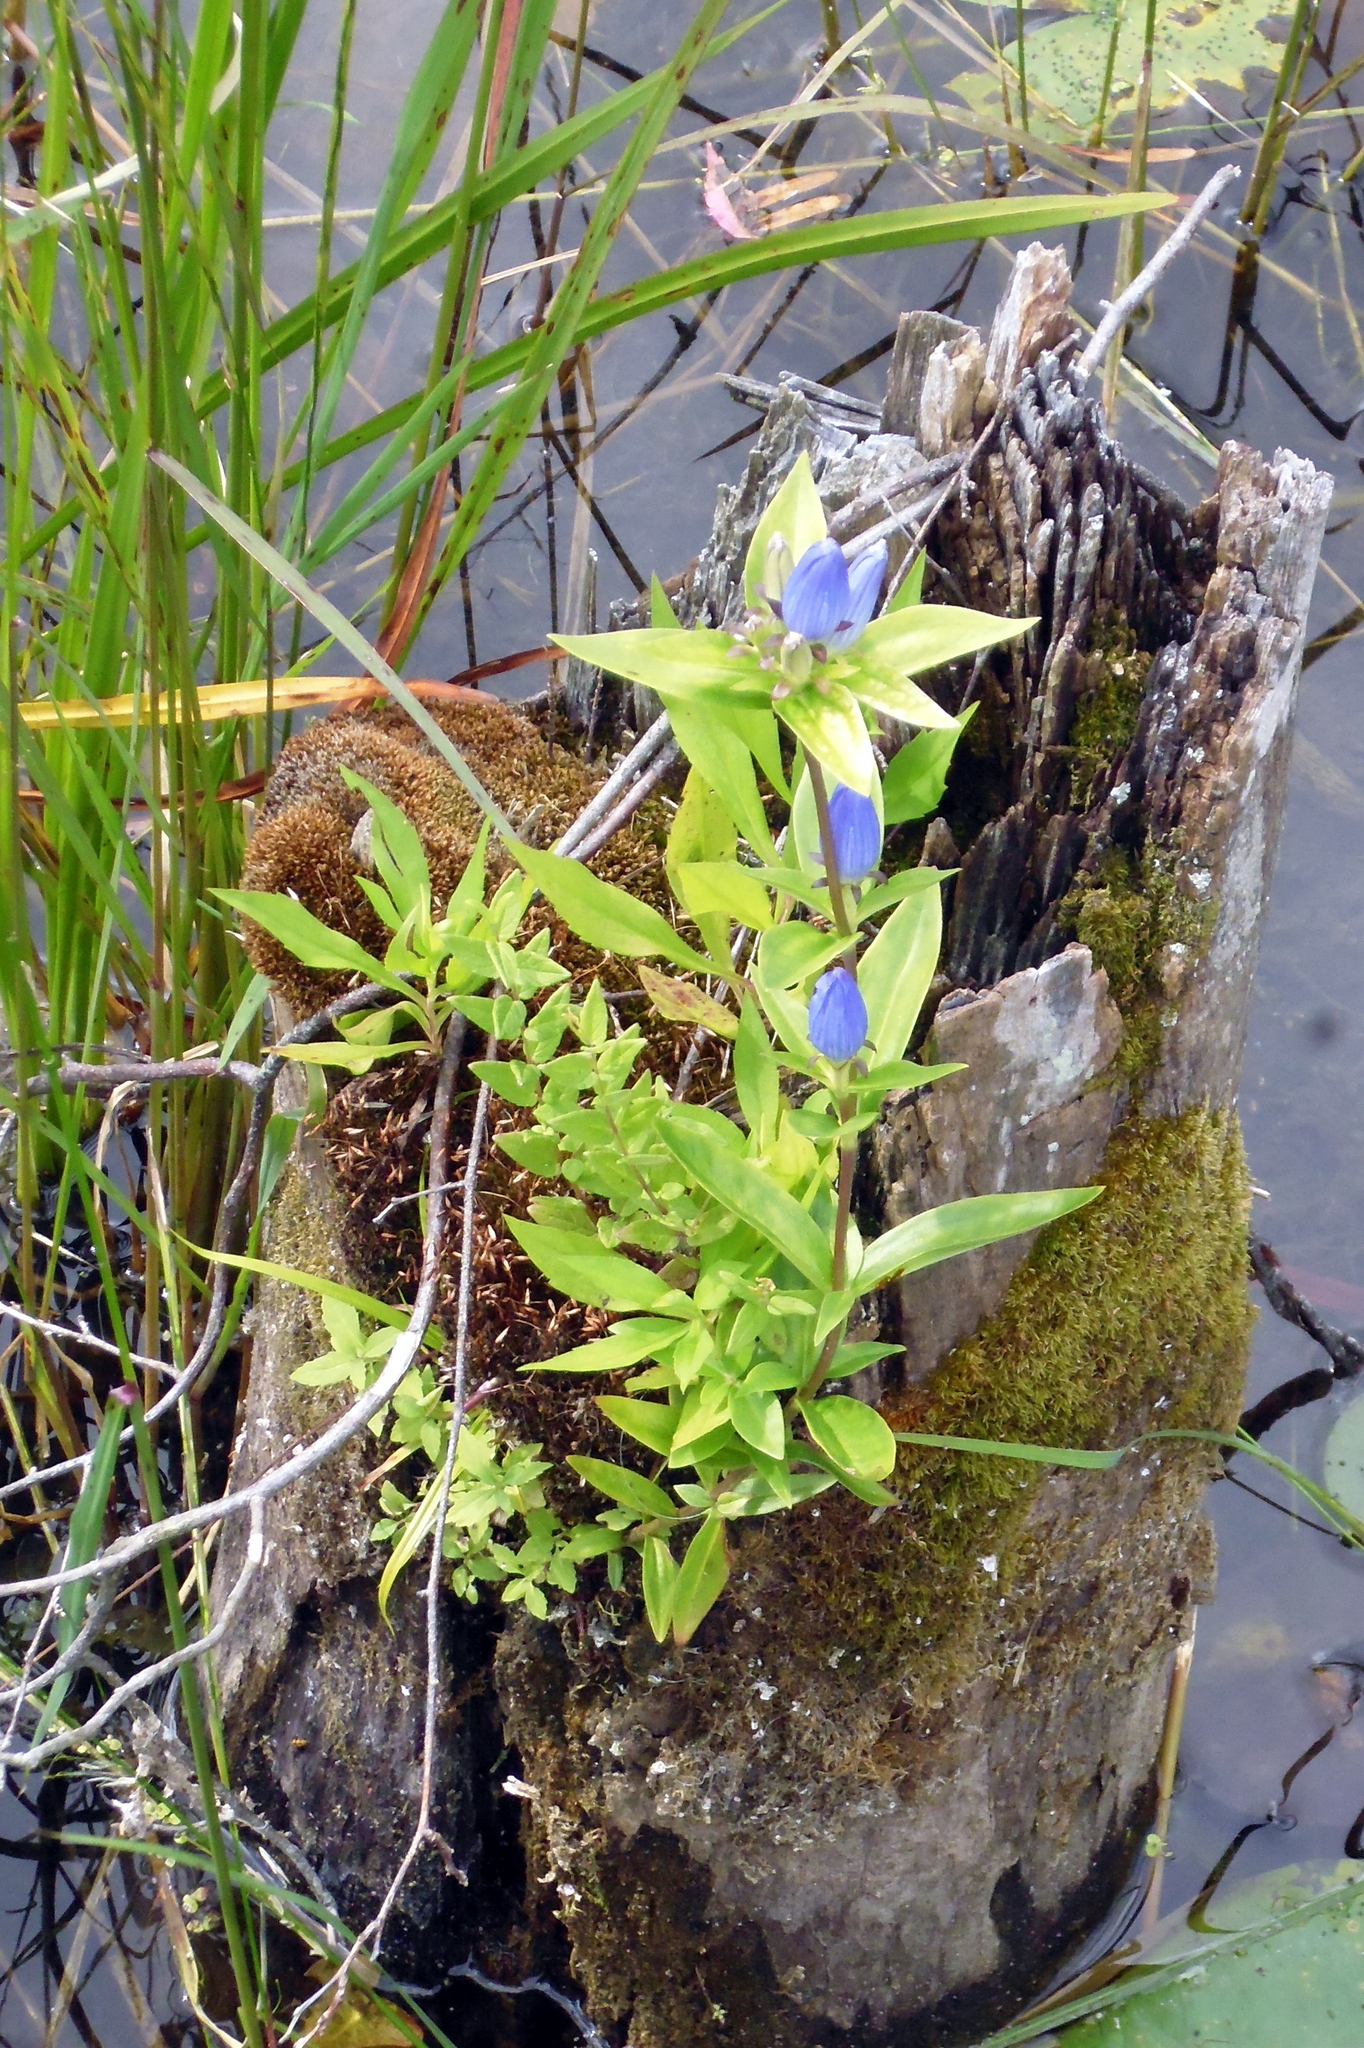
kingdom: Plantae
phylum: Tracheophyta
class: Magnoliopsida
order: Gentianales
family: Gentianaceae
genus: Gentiana
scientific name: Gentiana andrewsii
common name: Bottle gentian
